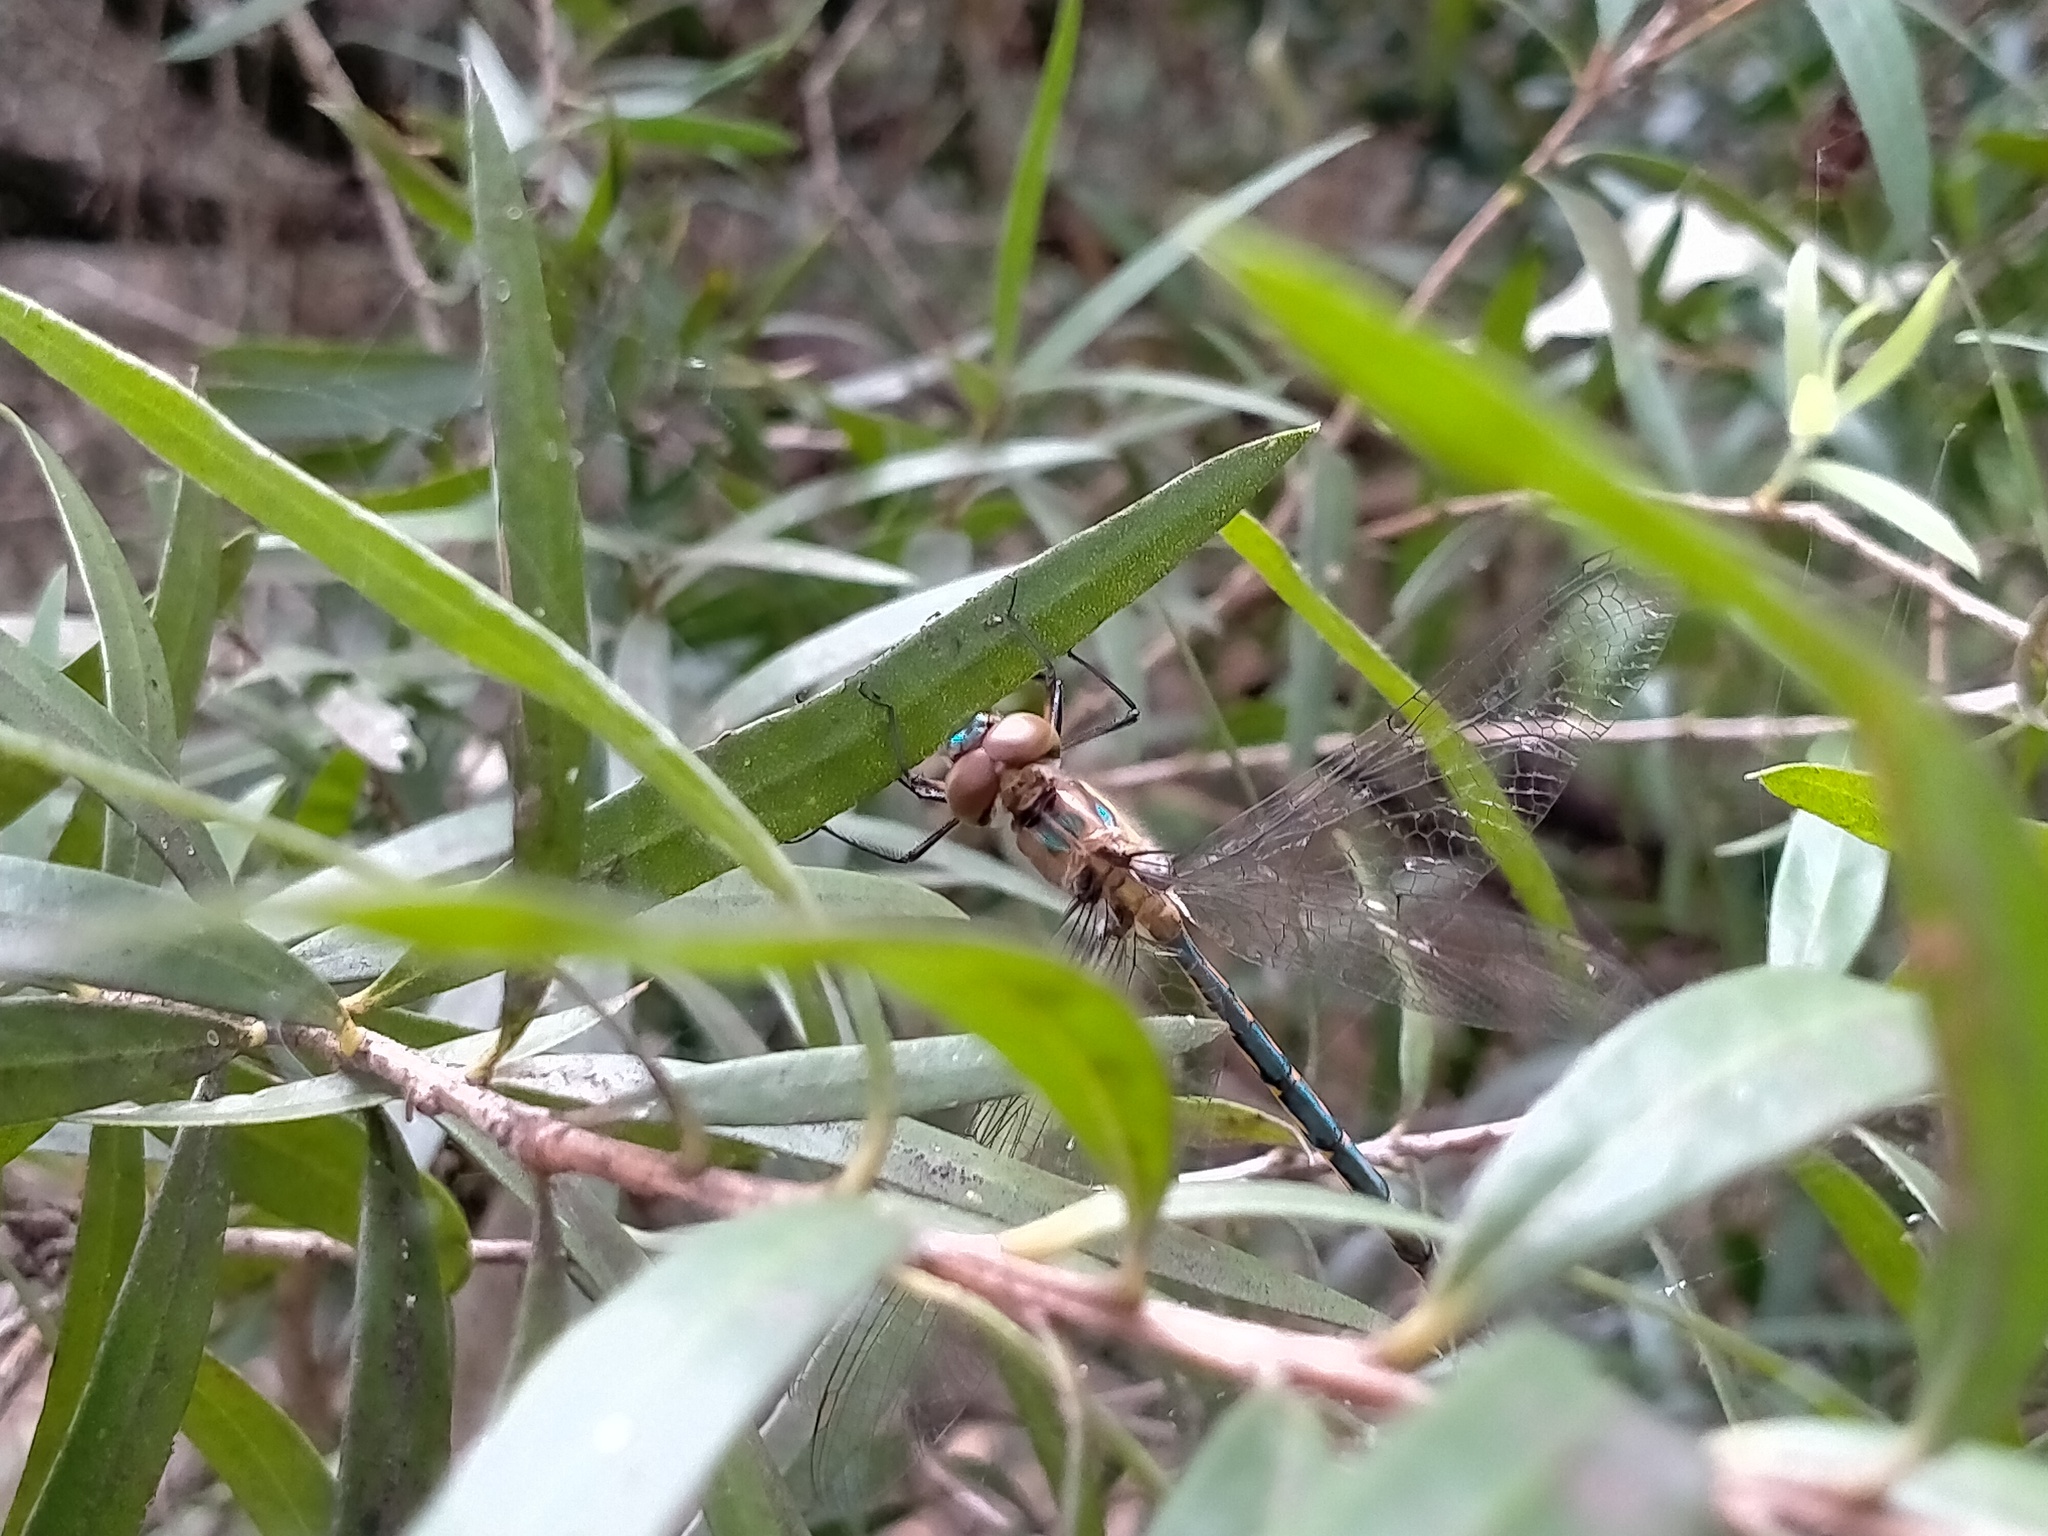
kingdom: Animalia
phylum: Arthropoda
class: Insecta
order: Odonata
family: Corduliidae
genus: Hemicordulia
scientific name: Hemicordulia australiae
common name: Sentry dragonfly
